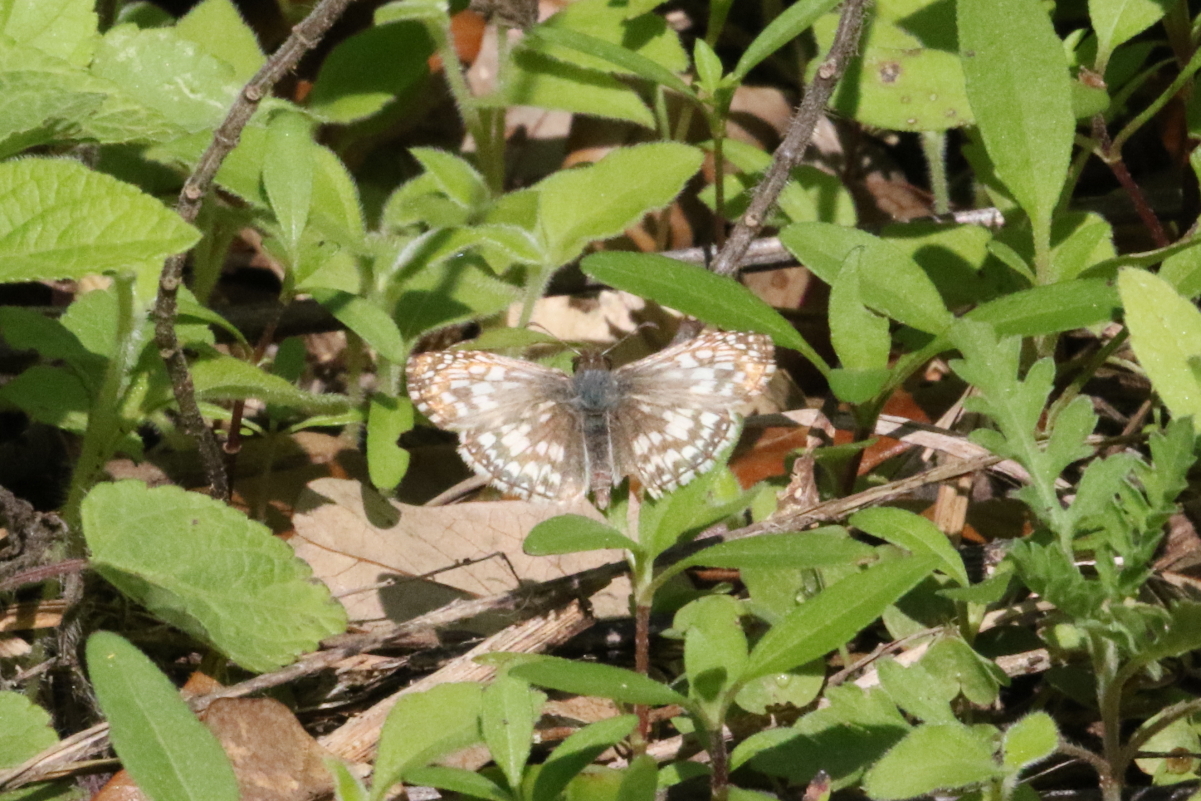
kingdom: Animalia
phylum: Arthropoda
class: Insecta
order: Lepidoptera
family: Hesperiidae
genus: Pyrgus
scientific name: Pyrgus oileus
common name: Tropical checkered-skipper
